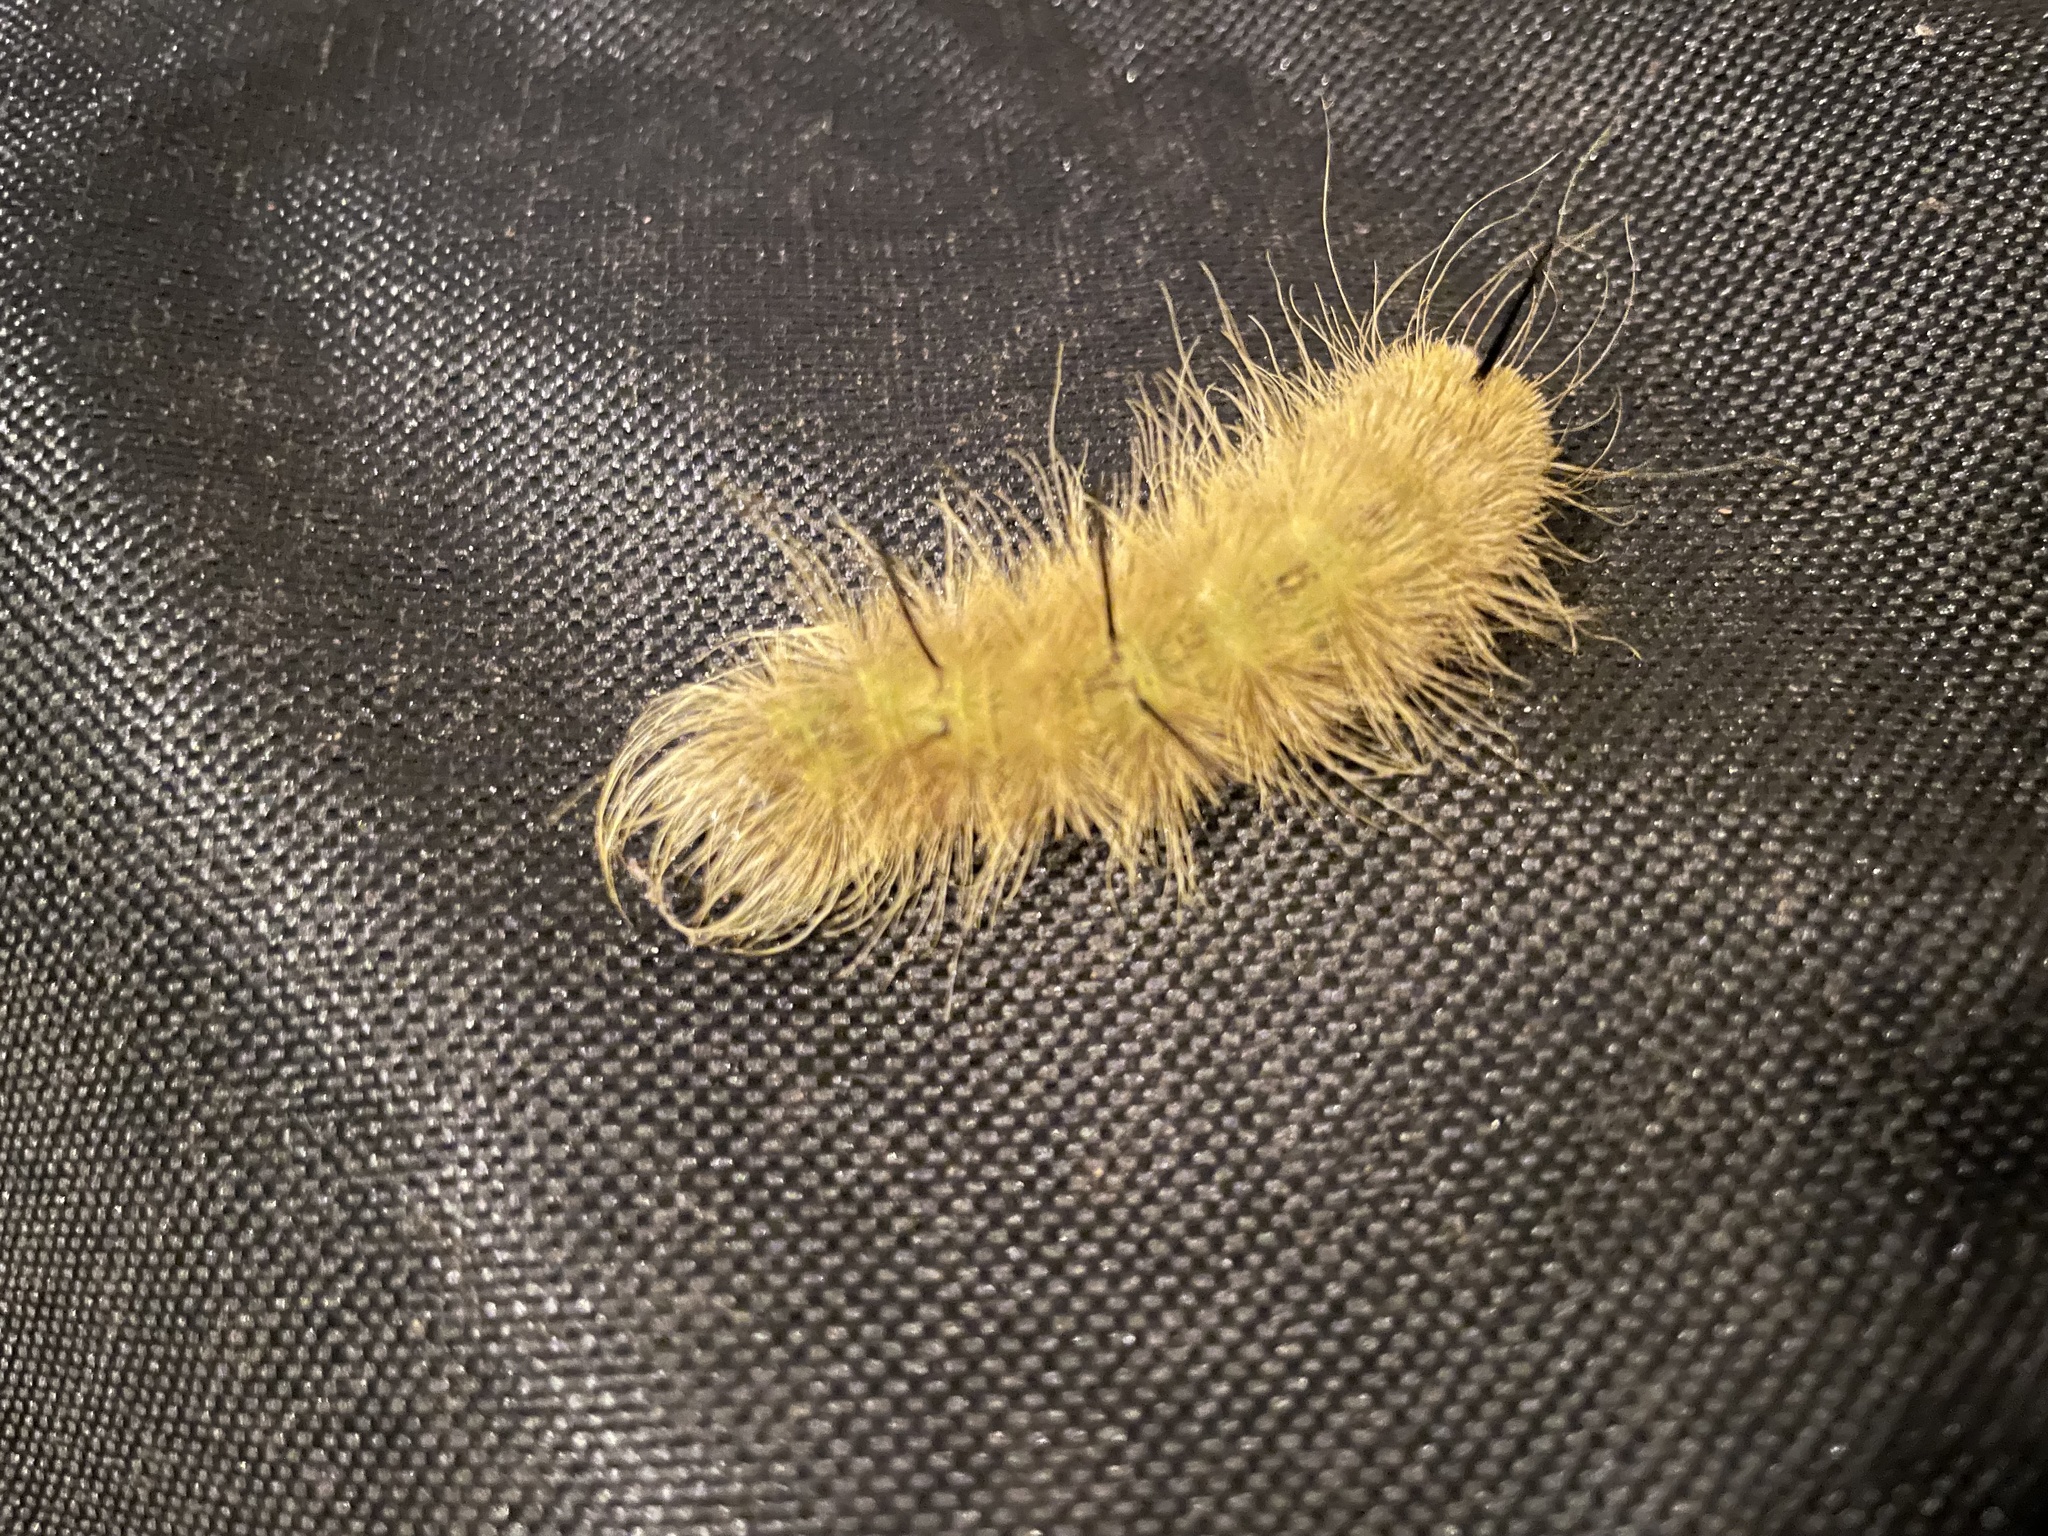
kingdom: Animalia
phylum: Arthropoda
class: Insecta
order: Lepidoptera
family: Noctuidae
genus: Acronicta
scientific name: Acronicta americana
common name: American dagger
